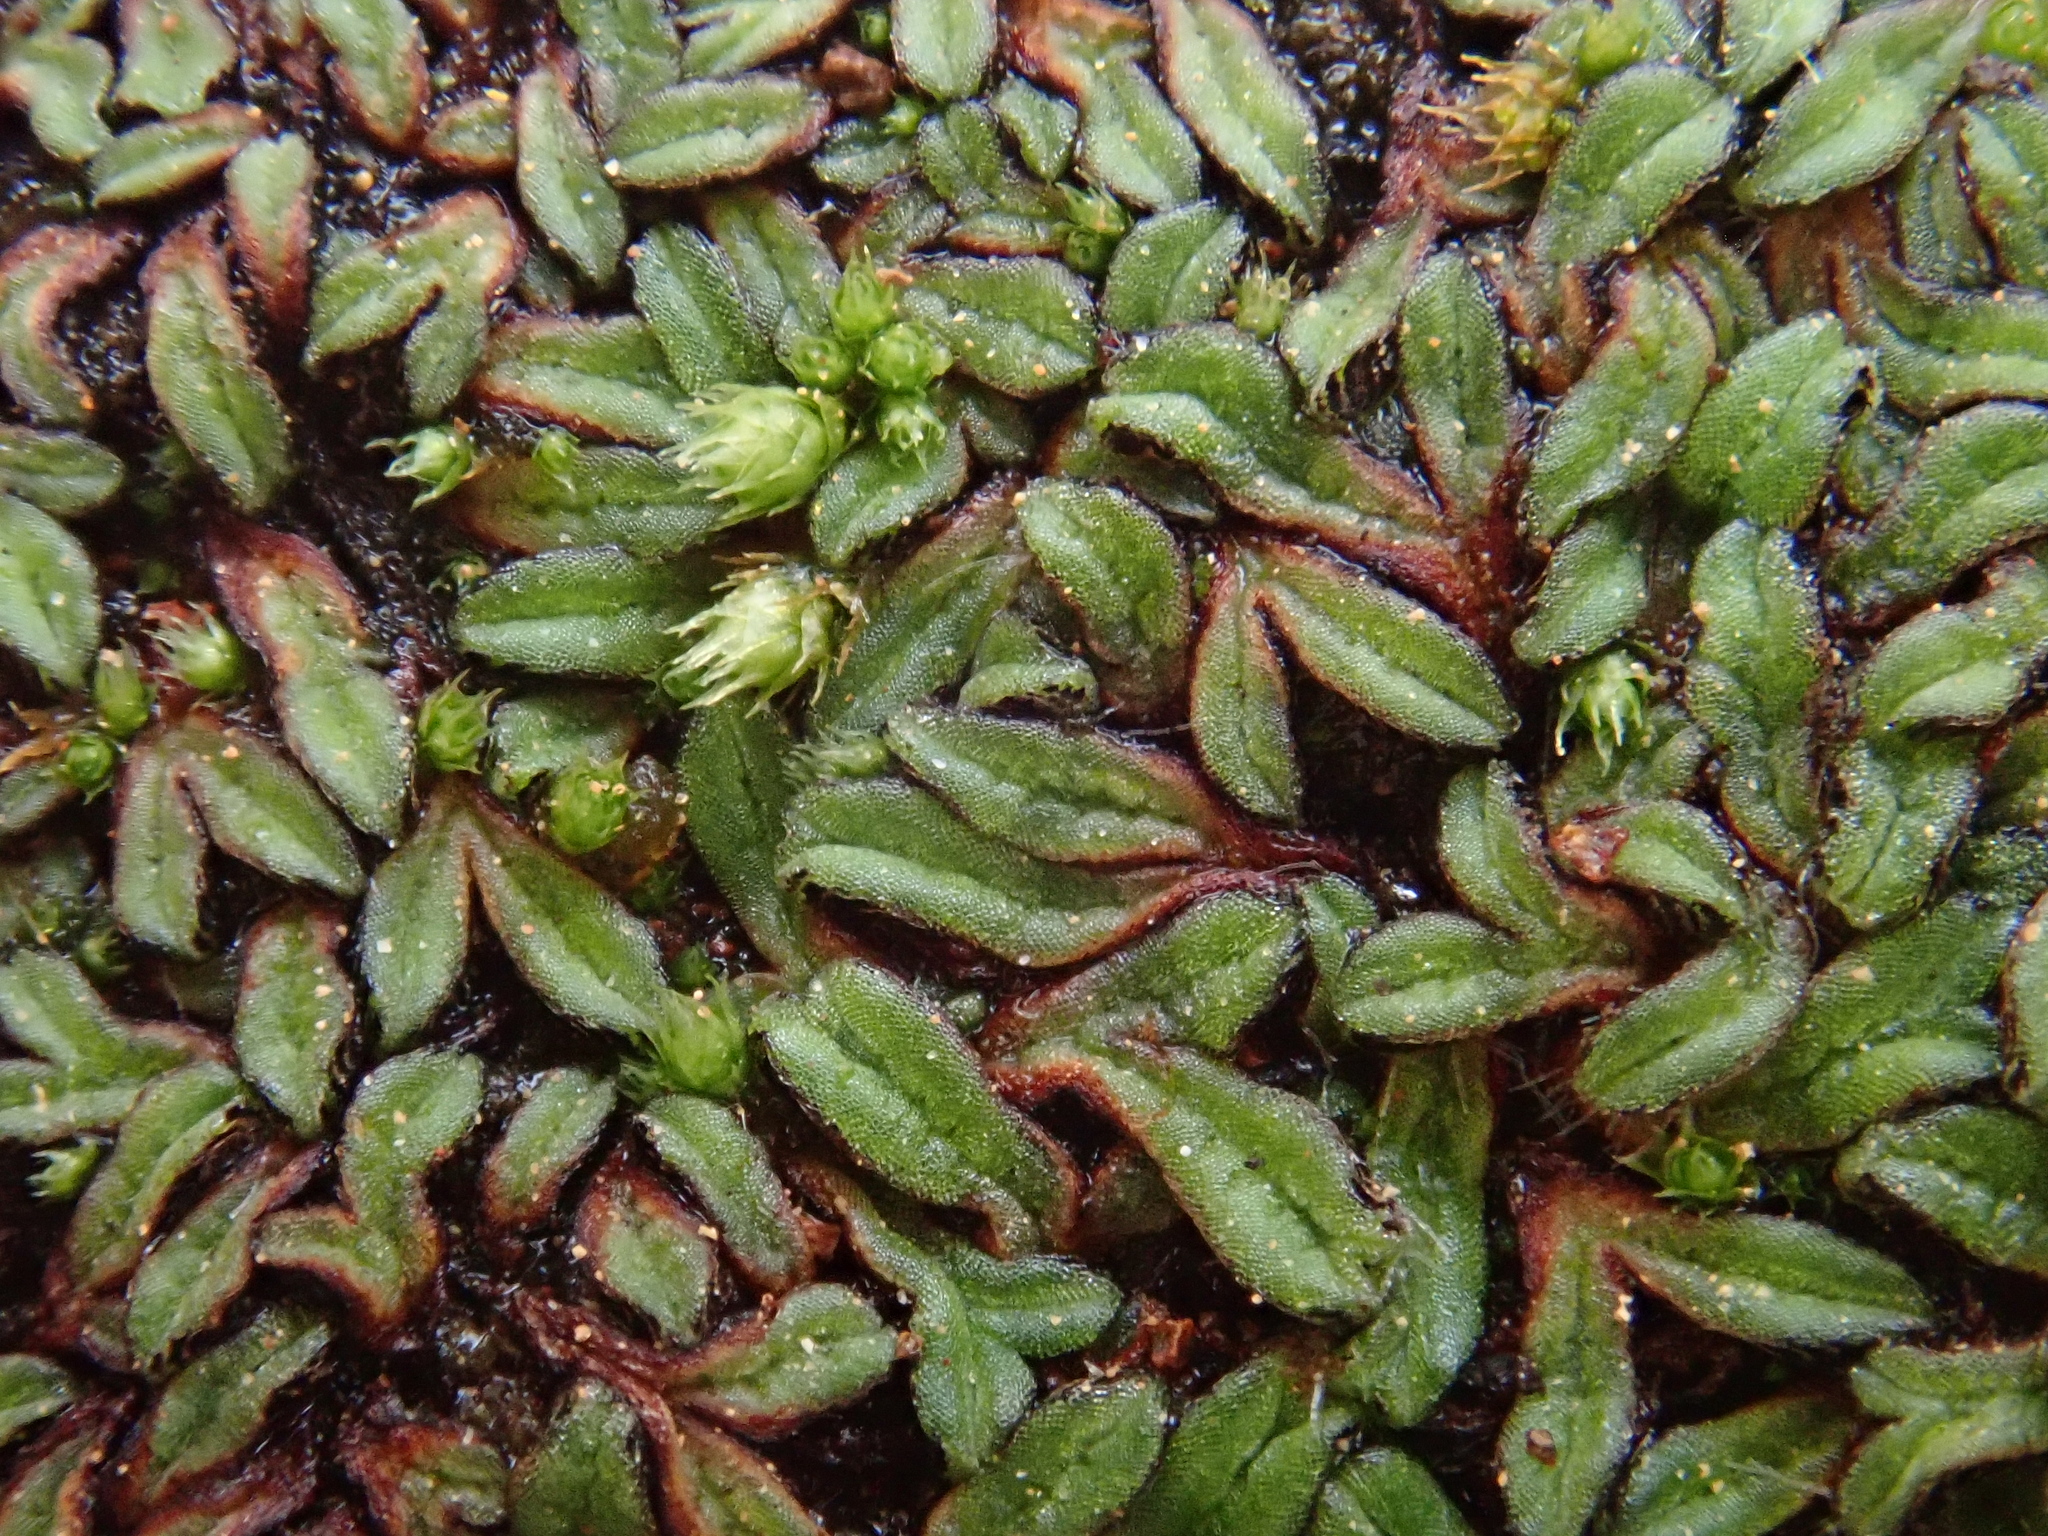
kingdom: Plantae
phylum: Marchantiophyta
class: Marchantiopsida
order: Marchantiales
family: Ricciaceae
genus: Riccia
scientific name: Riccia nigrella
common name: Black crystalwort
